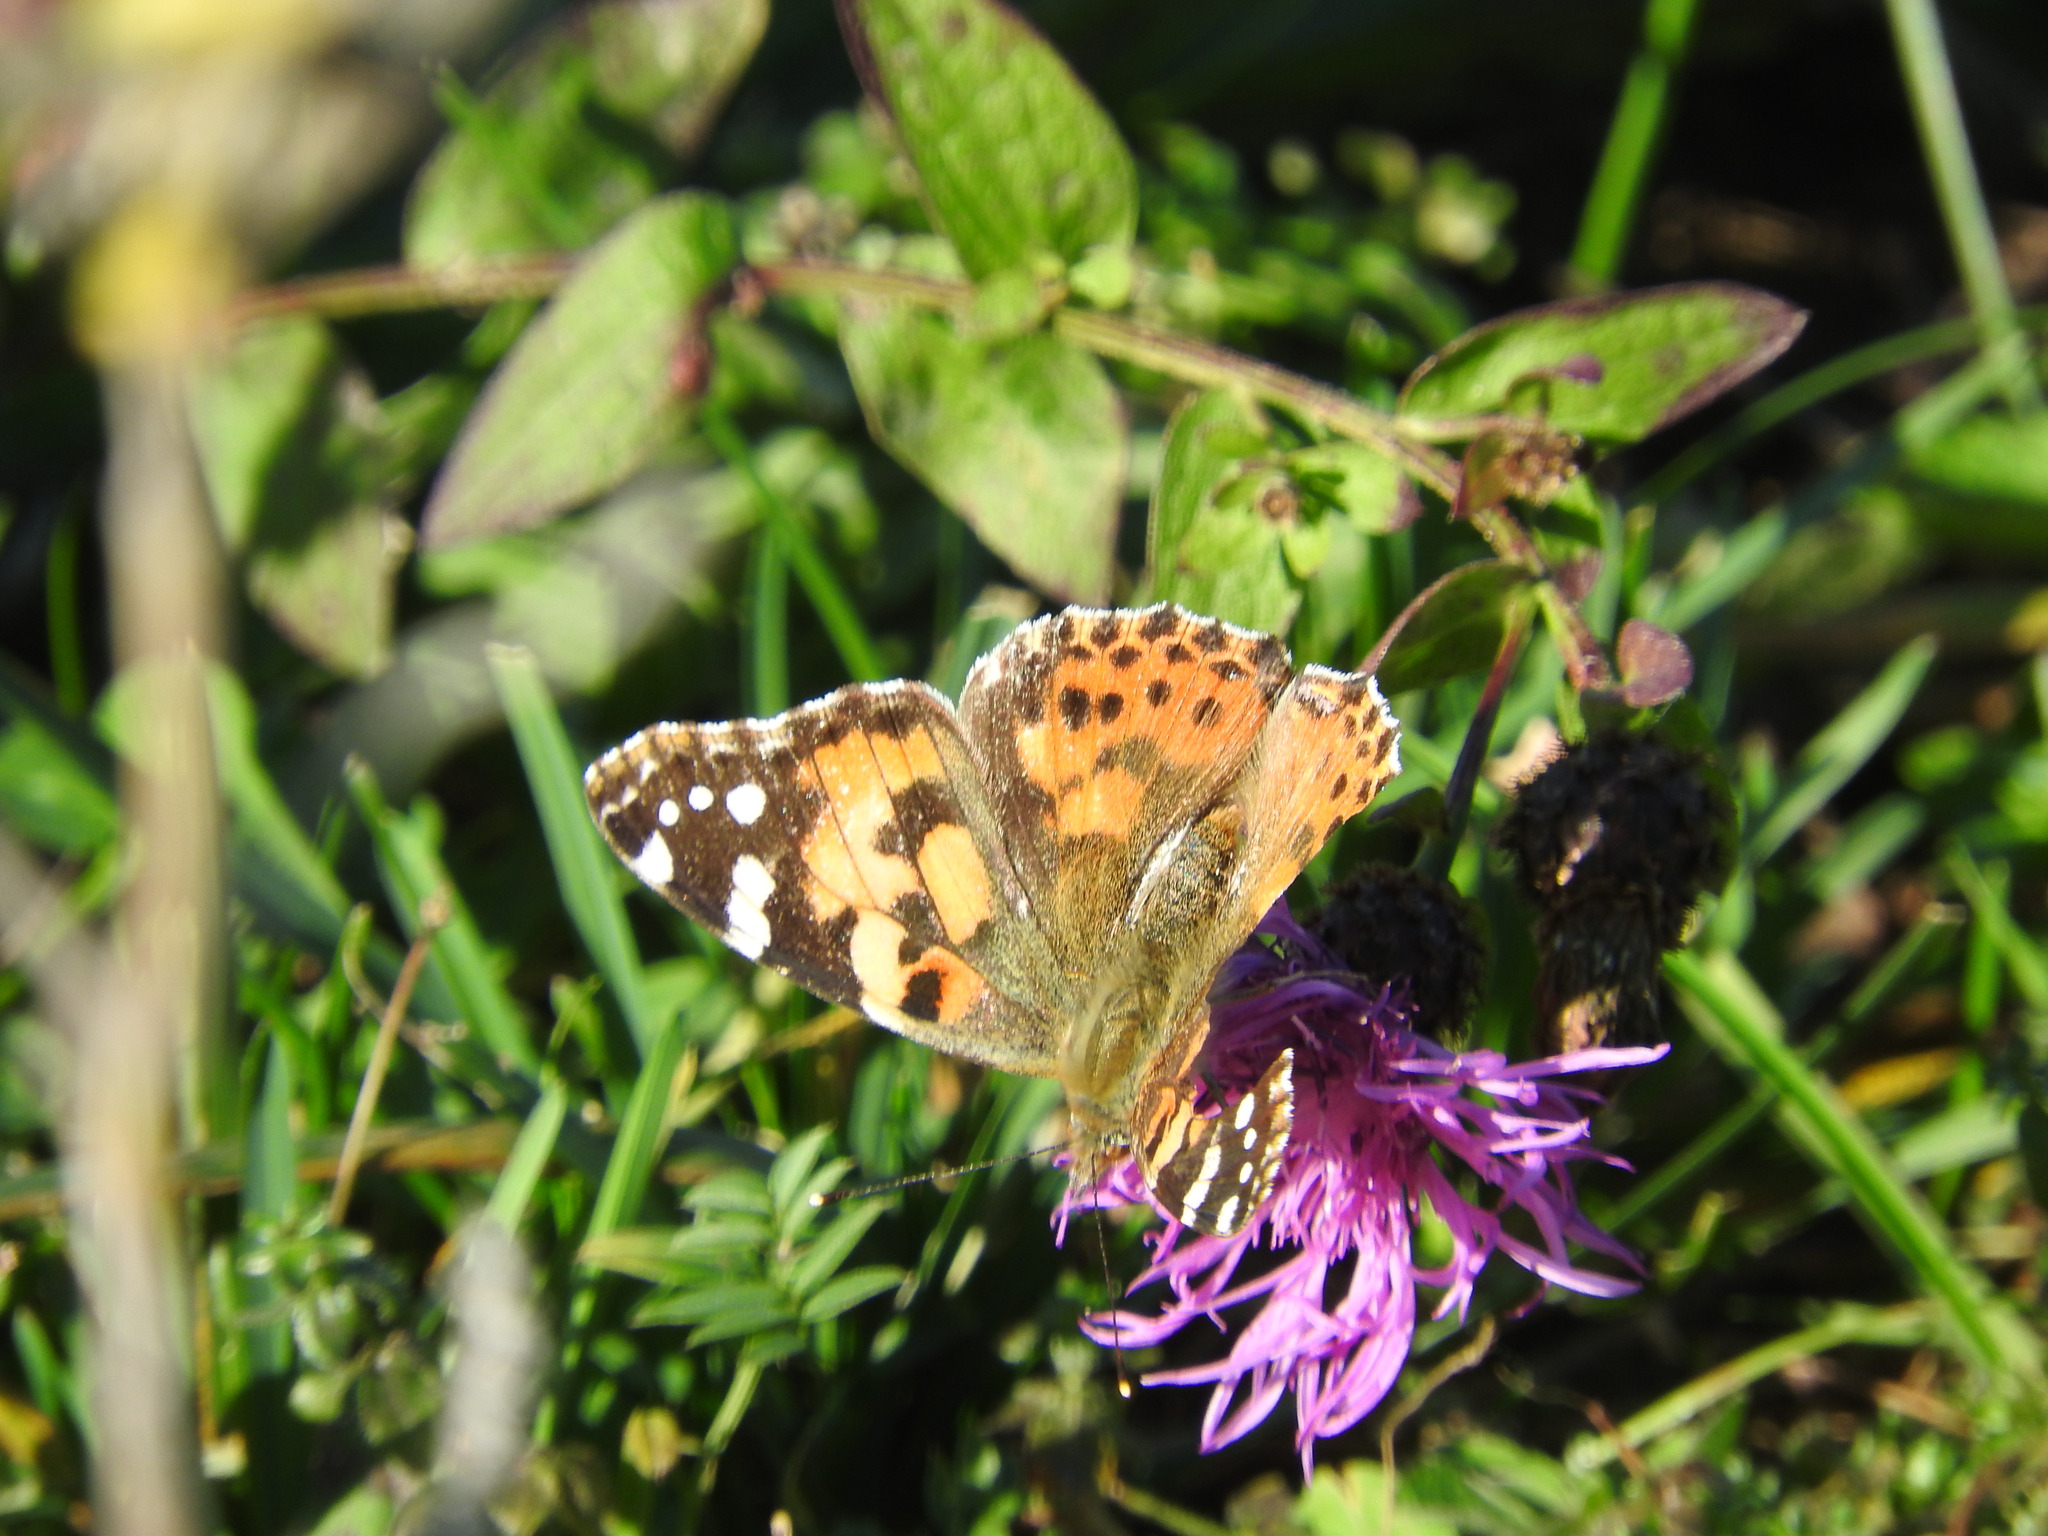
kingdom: Animalia
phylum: Arthropoda
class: Insecta
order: Lepidoptera
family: Nymphalidae
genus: Vanessa
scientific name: Vanessa cardui
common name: Painted lady
